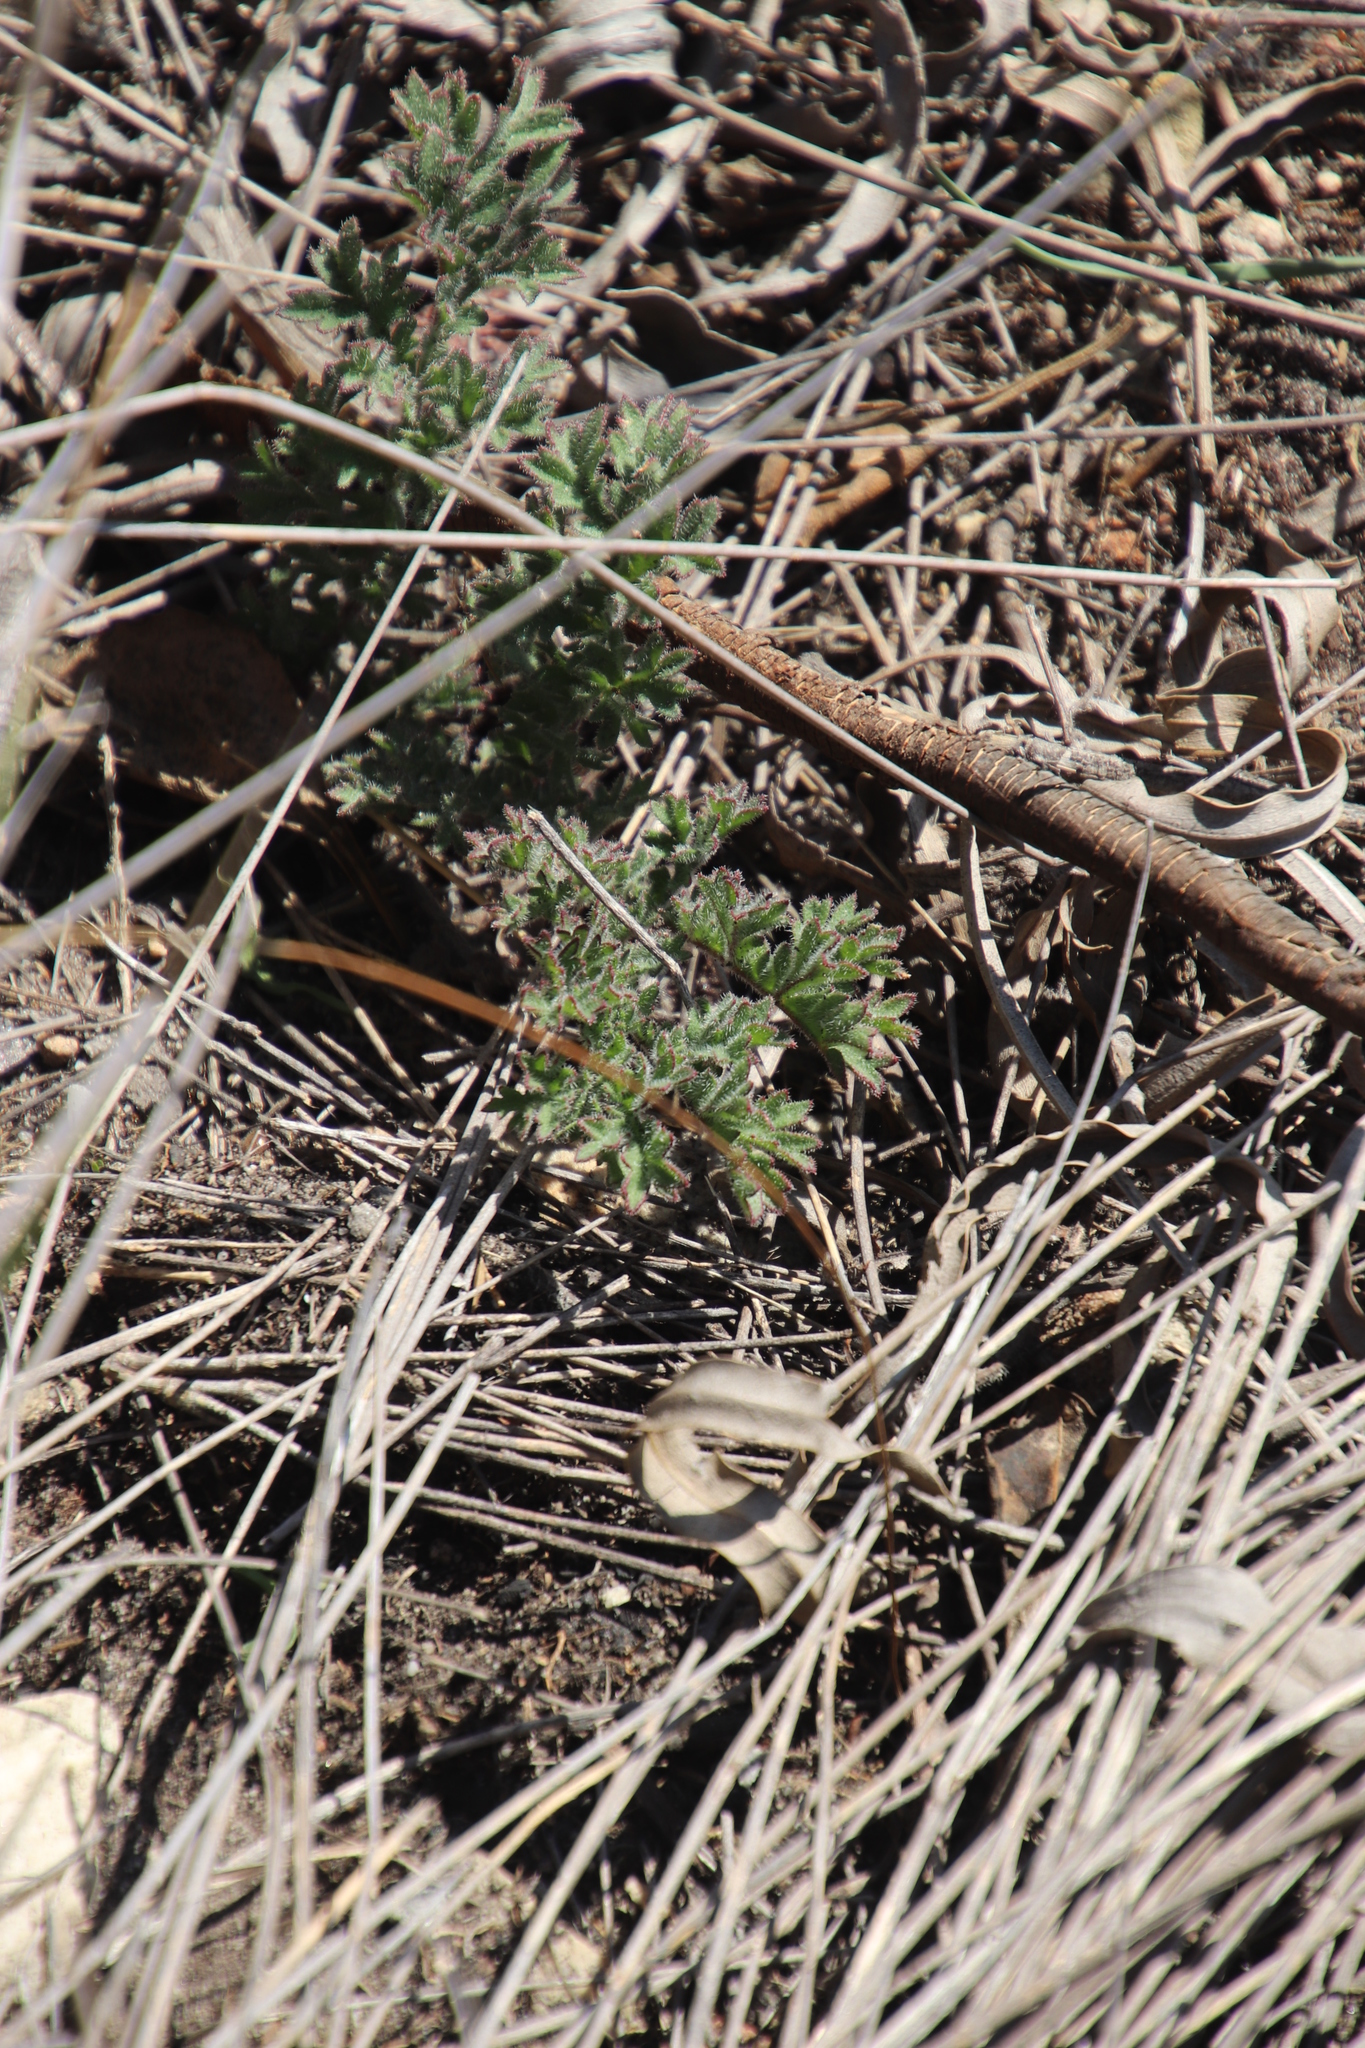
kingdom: Plantae
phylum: Tracheophyta
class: Magnoliopsida
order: Geraniales
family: Geraniaceae
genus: Pelargonium
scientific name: Pelargonium triste
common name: Night-scent pelargonium
